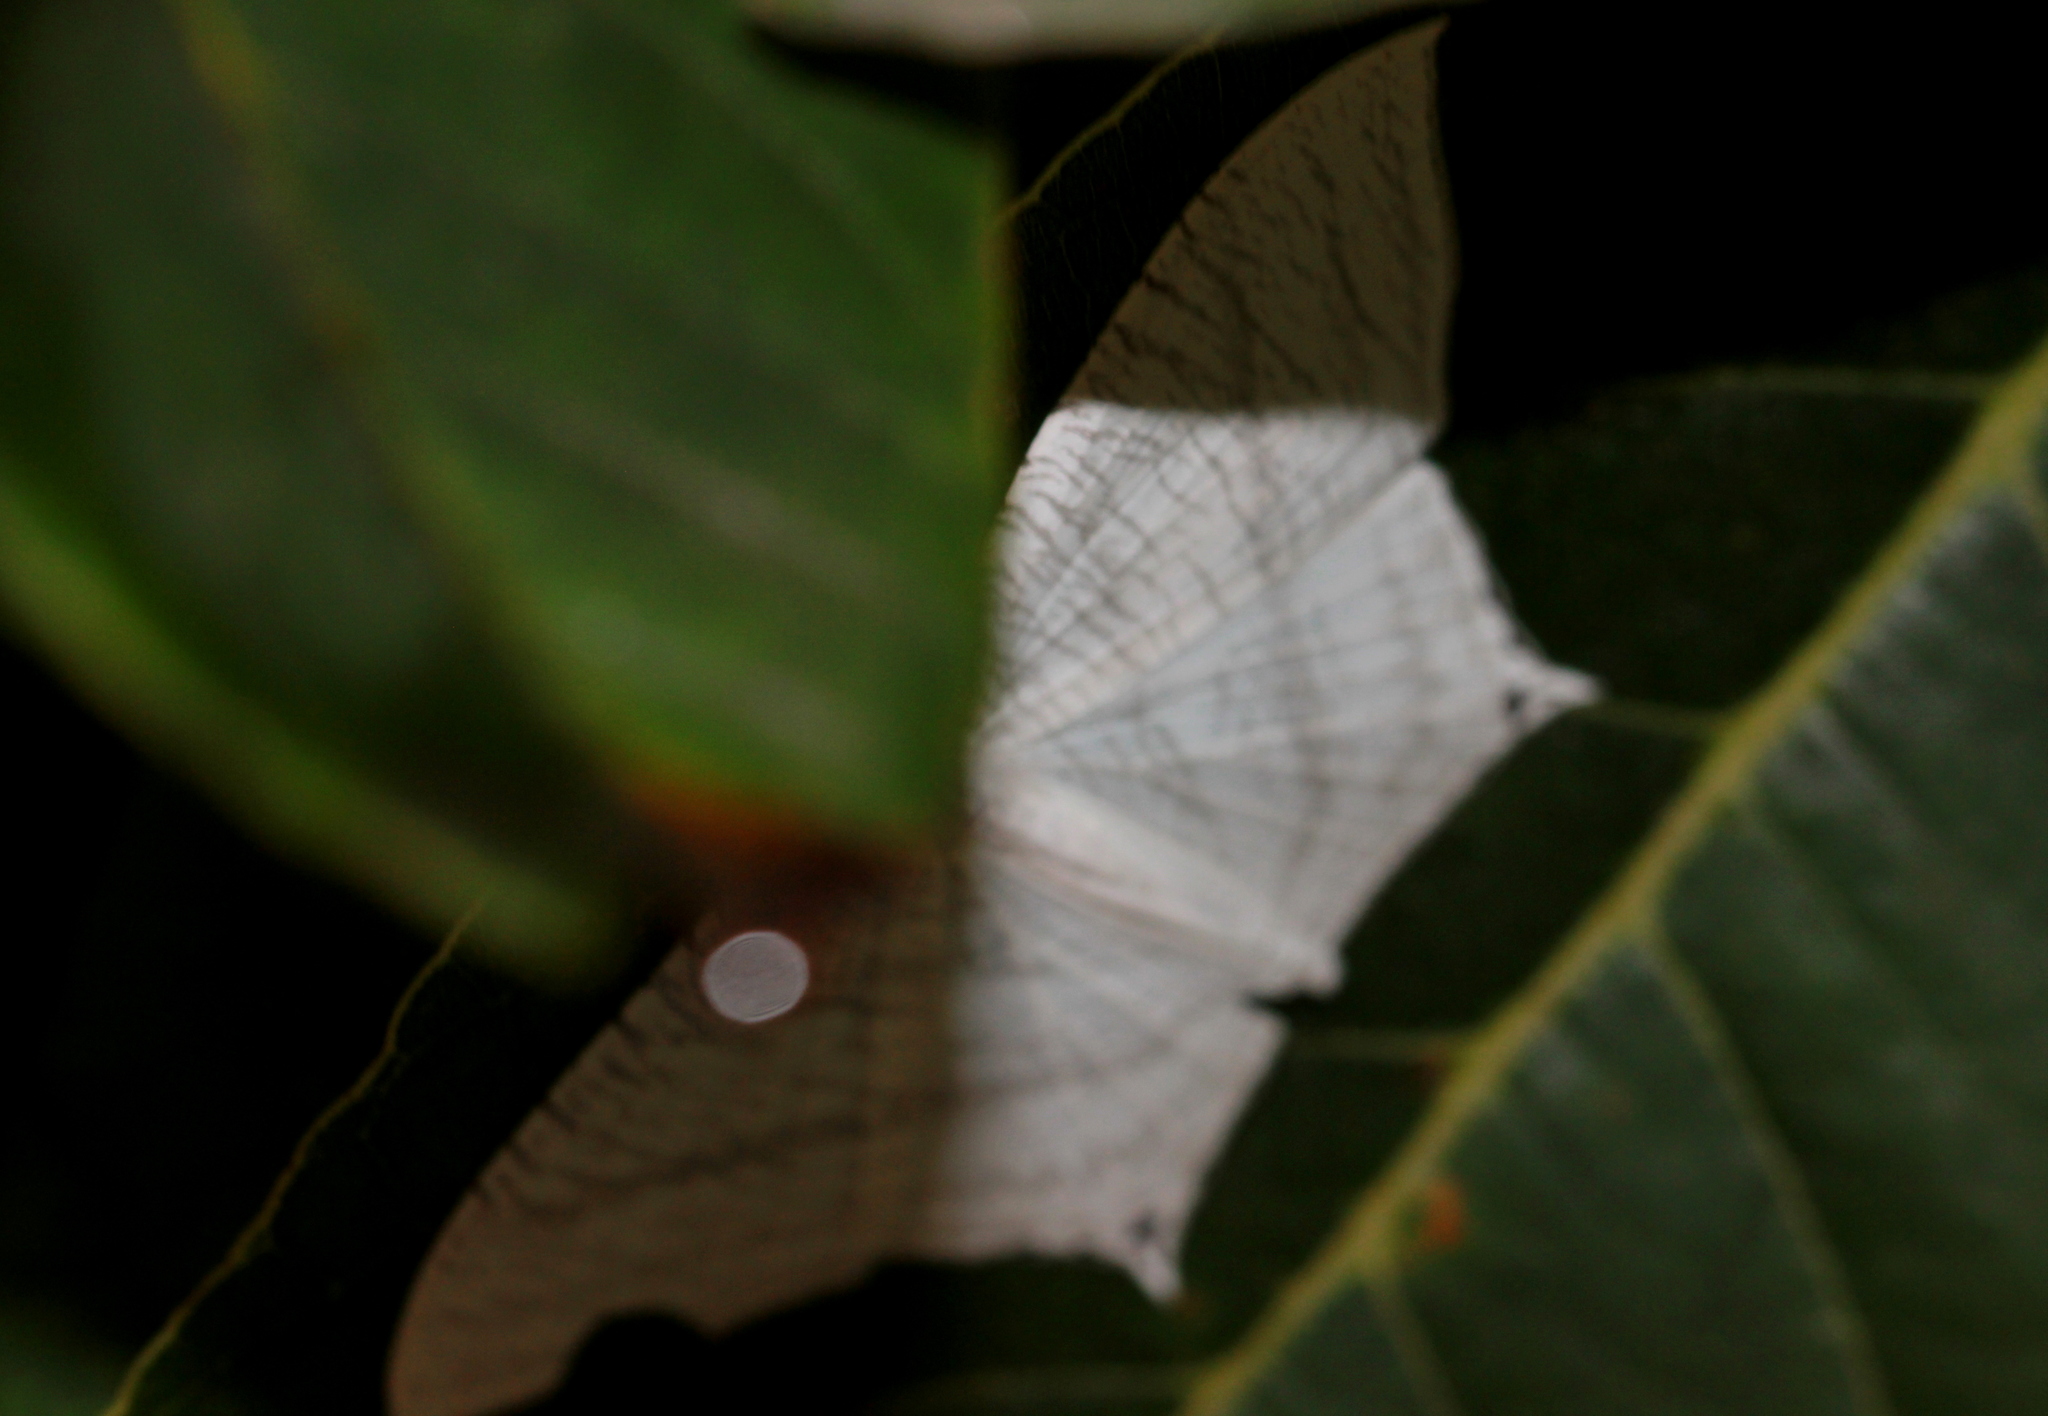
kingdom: Animalia
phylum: Arthropoda
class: Insecta
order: Lepidoptera
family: Uraniidae
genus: Micronia
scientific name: Micronia aculeata
